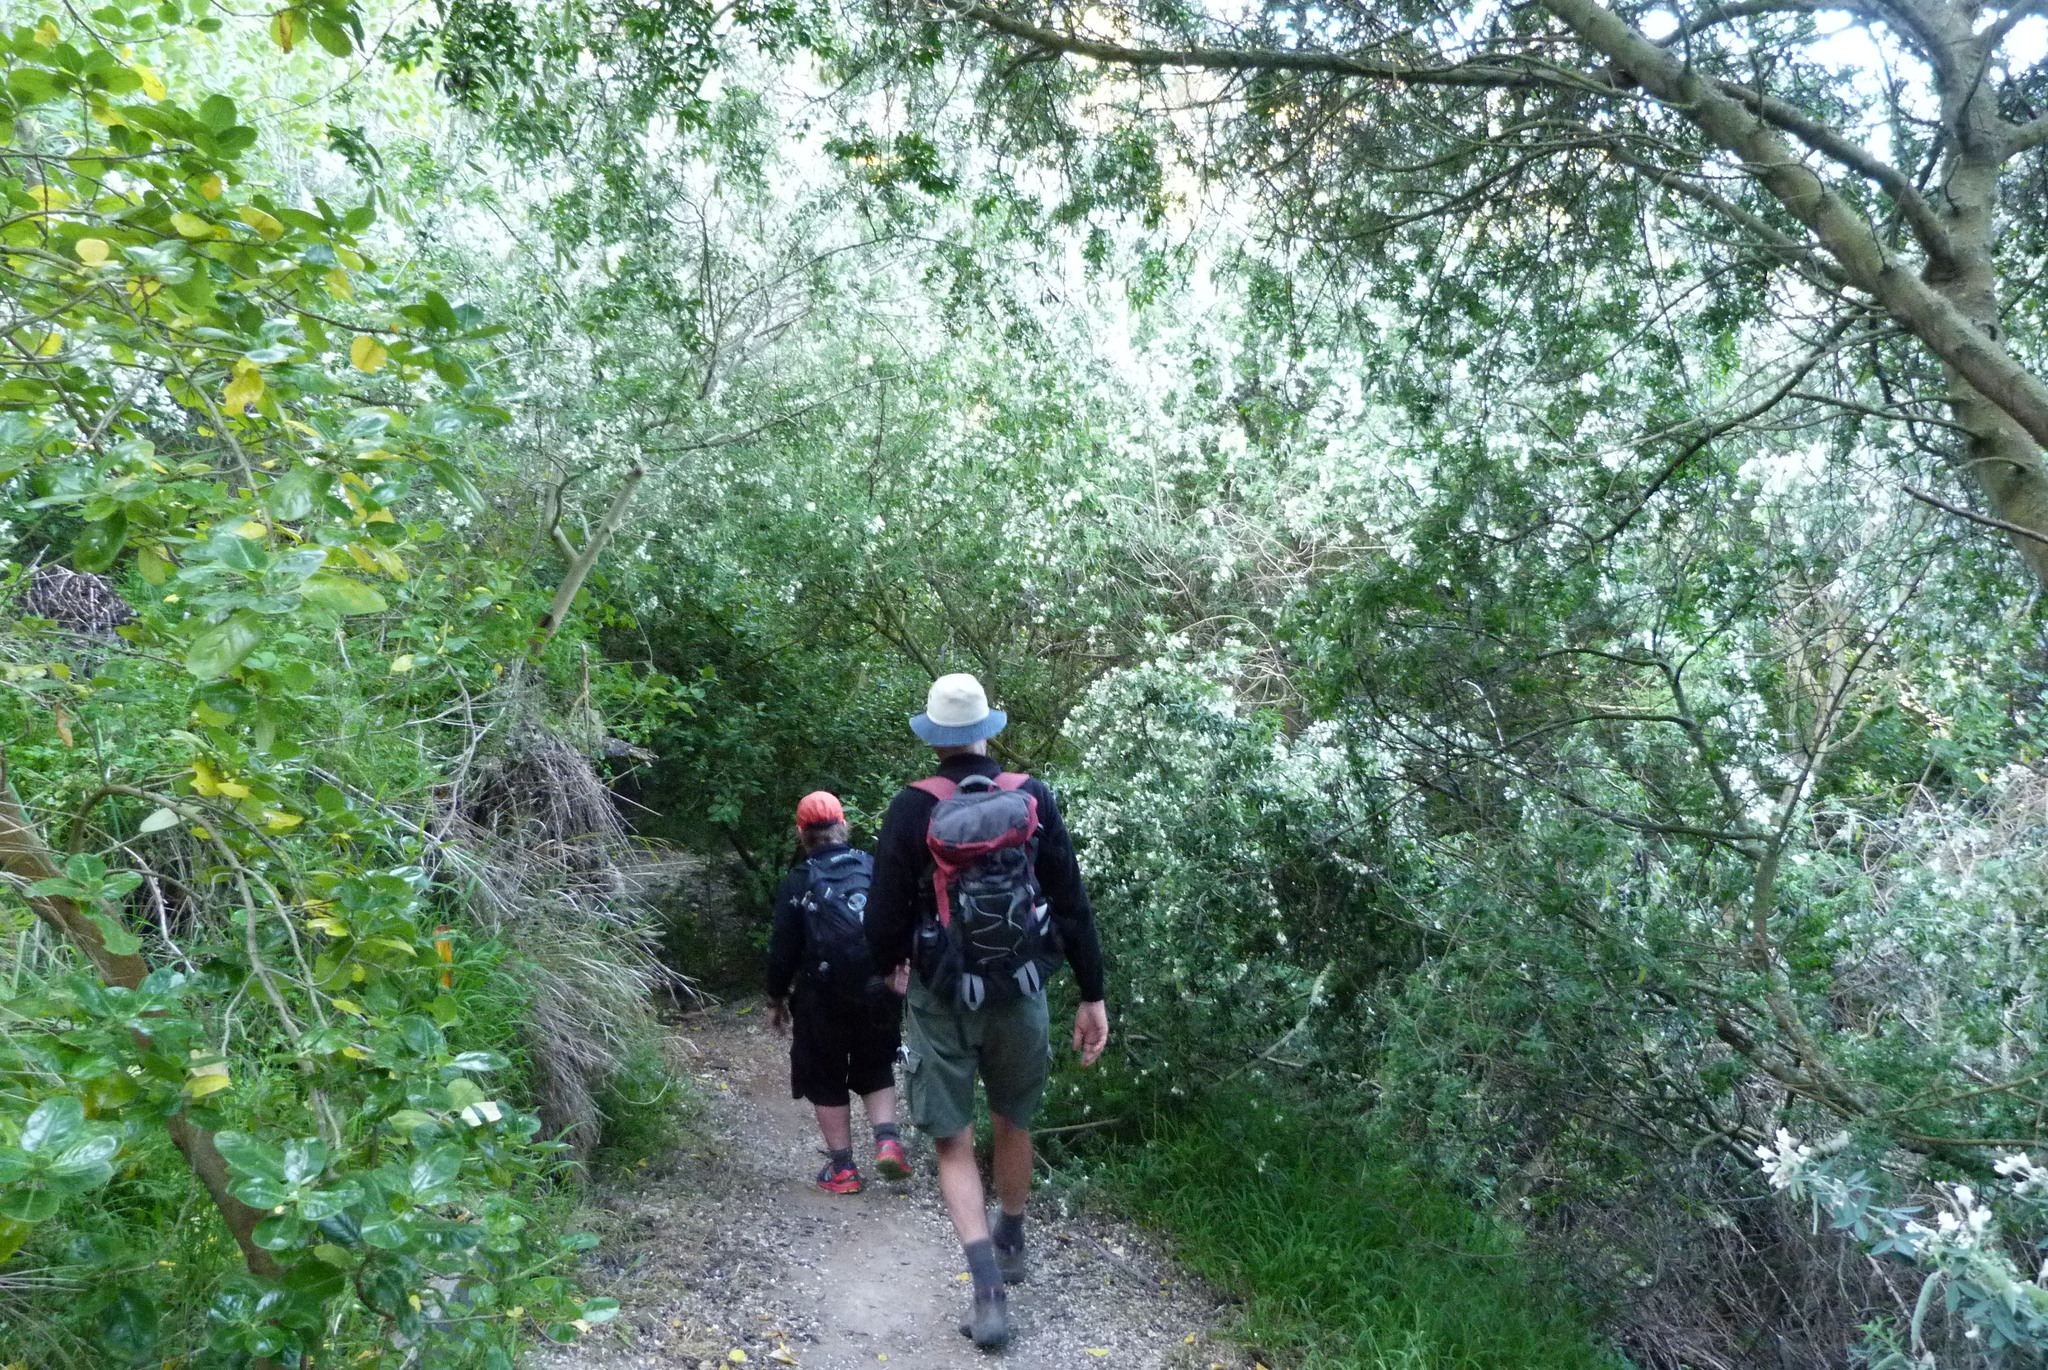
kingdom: Plantae
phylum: Tracheophyta
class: Magnoliopsida
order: Fabales
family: Fabaceae
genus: Chamaecytisus
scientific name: Chamaecytisus prolifer
